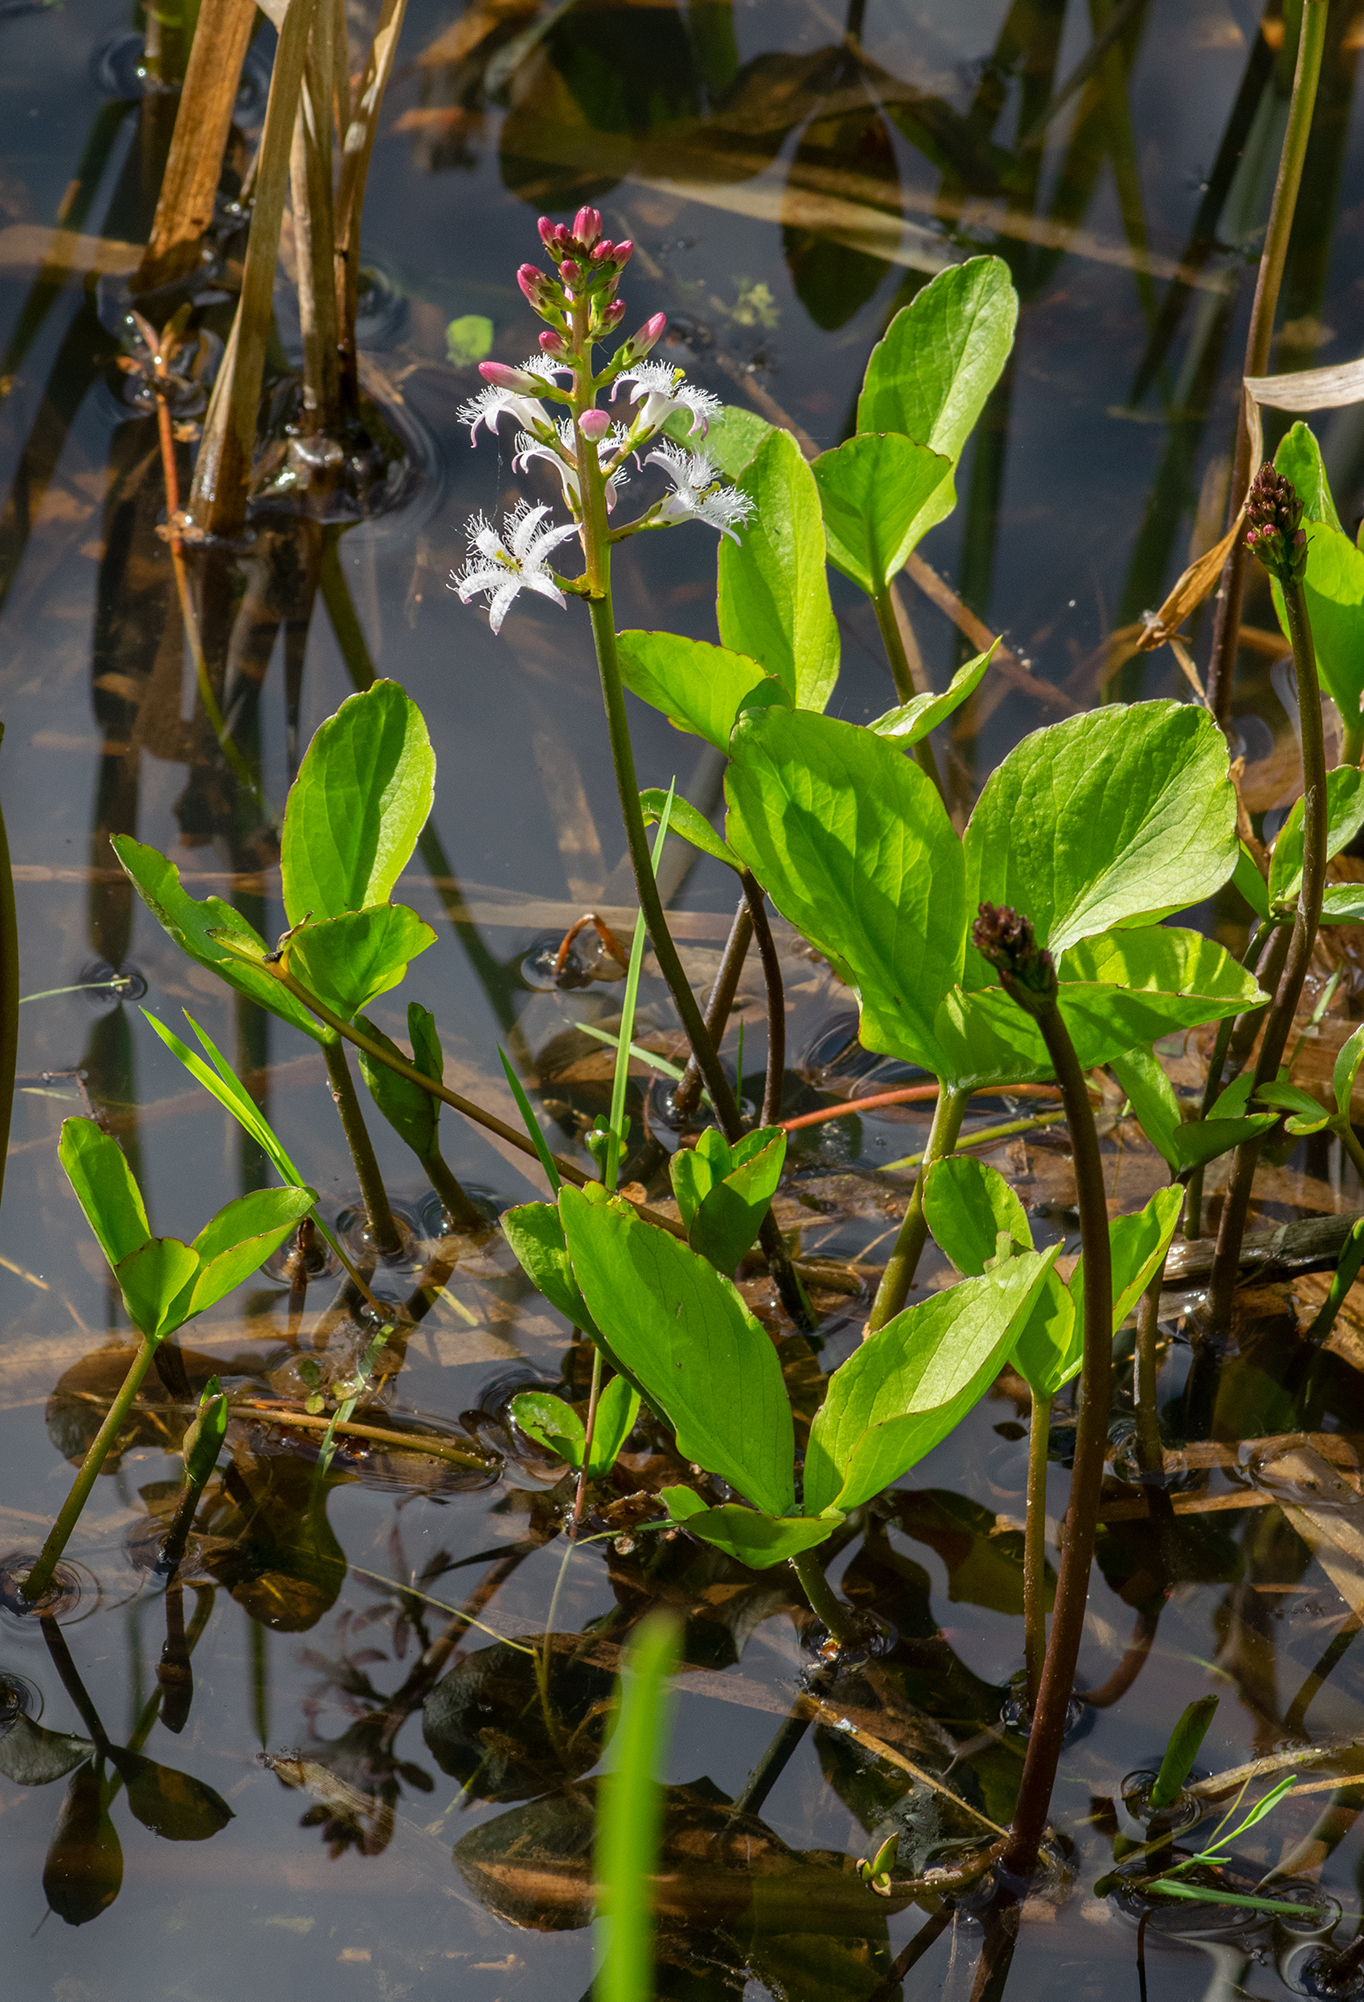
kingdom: Plantae
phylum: Tracheophyta
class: Magnoliopsida
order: Asterales
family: Menyanthaceae
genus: Menyanthes
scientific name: Menyanthes trifoliata
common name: Bogbean
